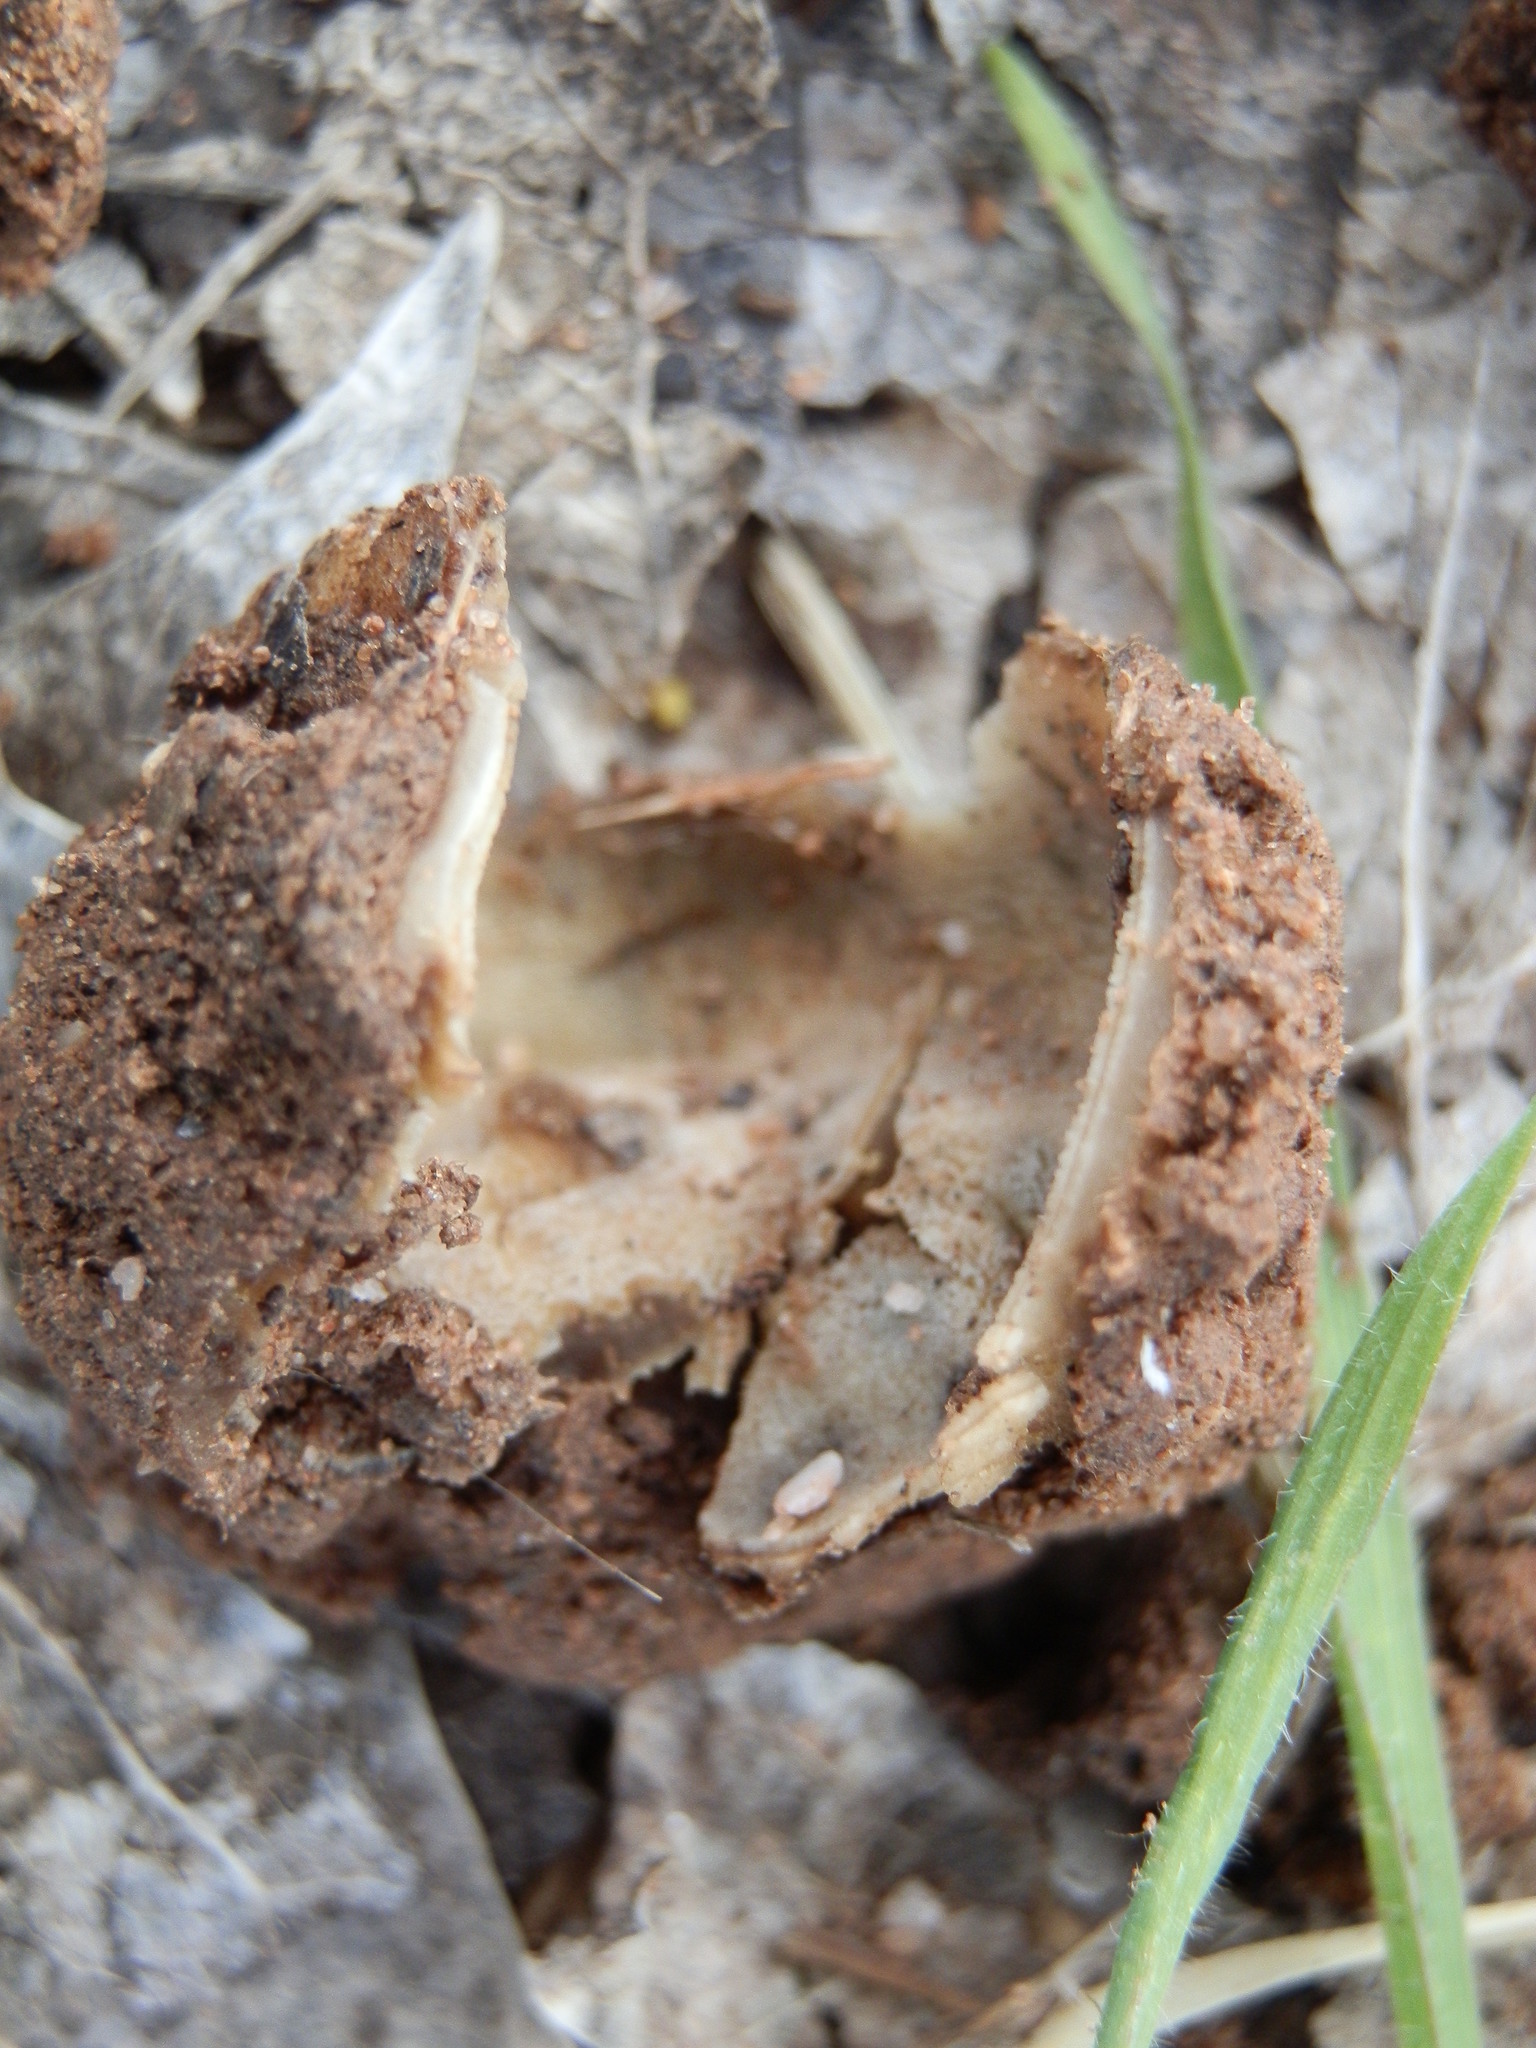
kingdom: Fungi
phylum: Ascomycota
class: Pezizomycetes
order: Pezizales
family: Pyronemataceae
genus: Geopora
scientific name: Geopora sepulta
